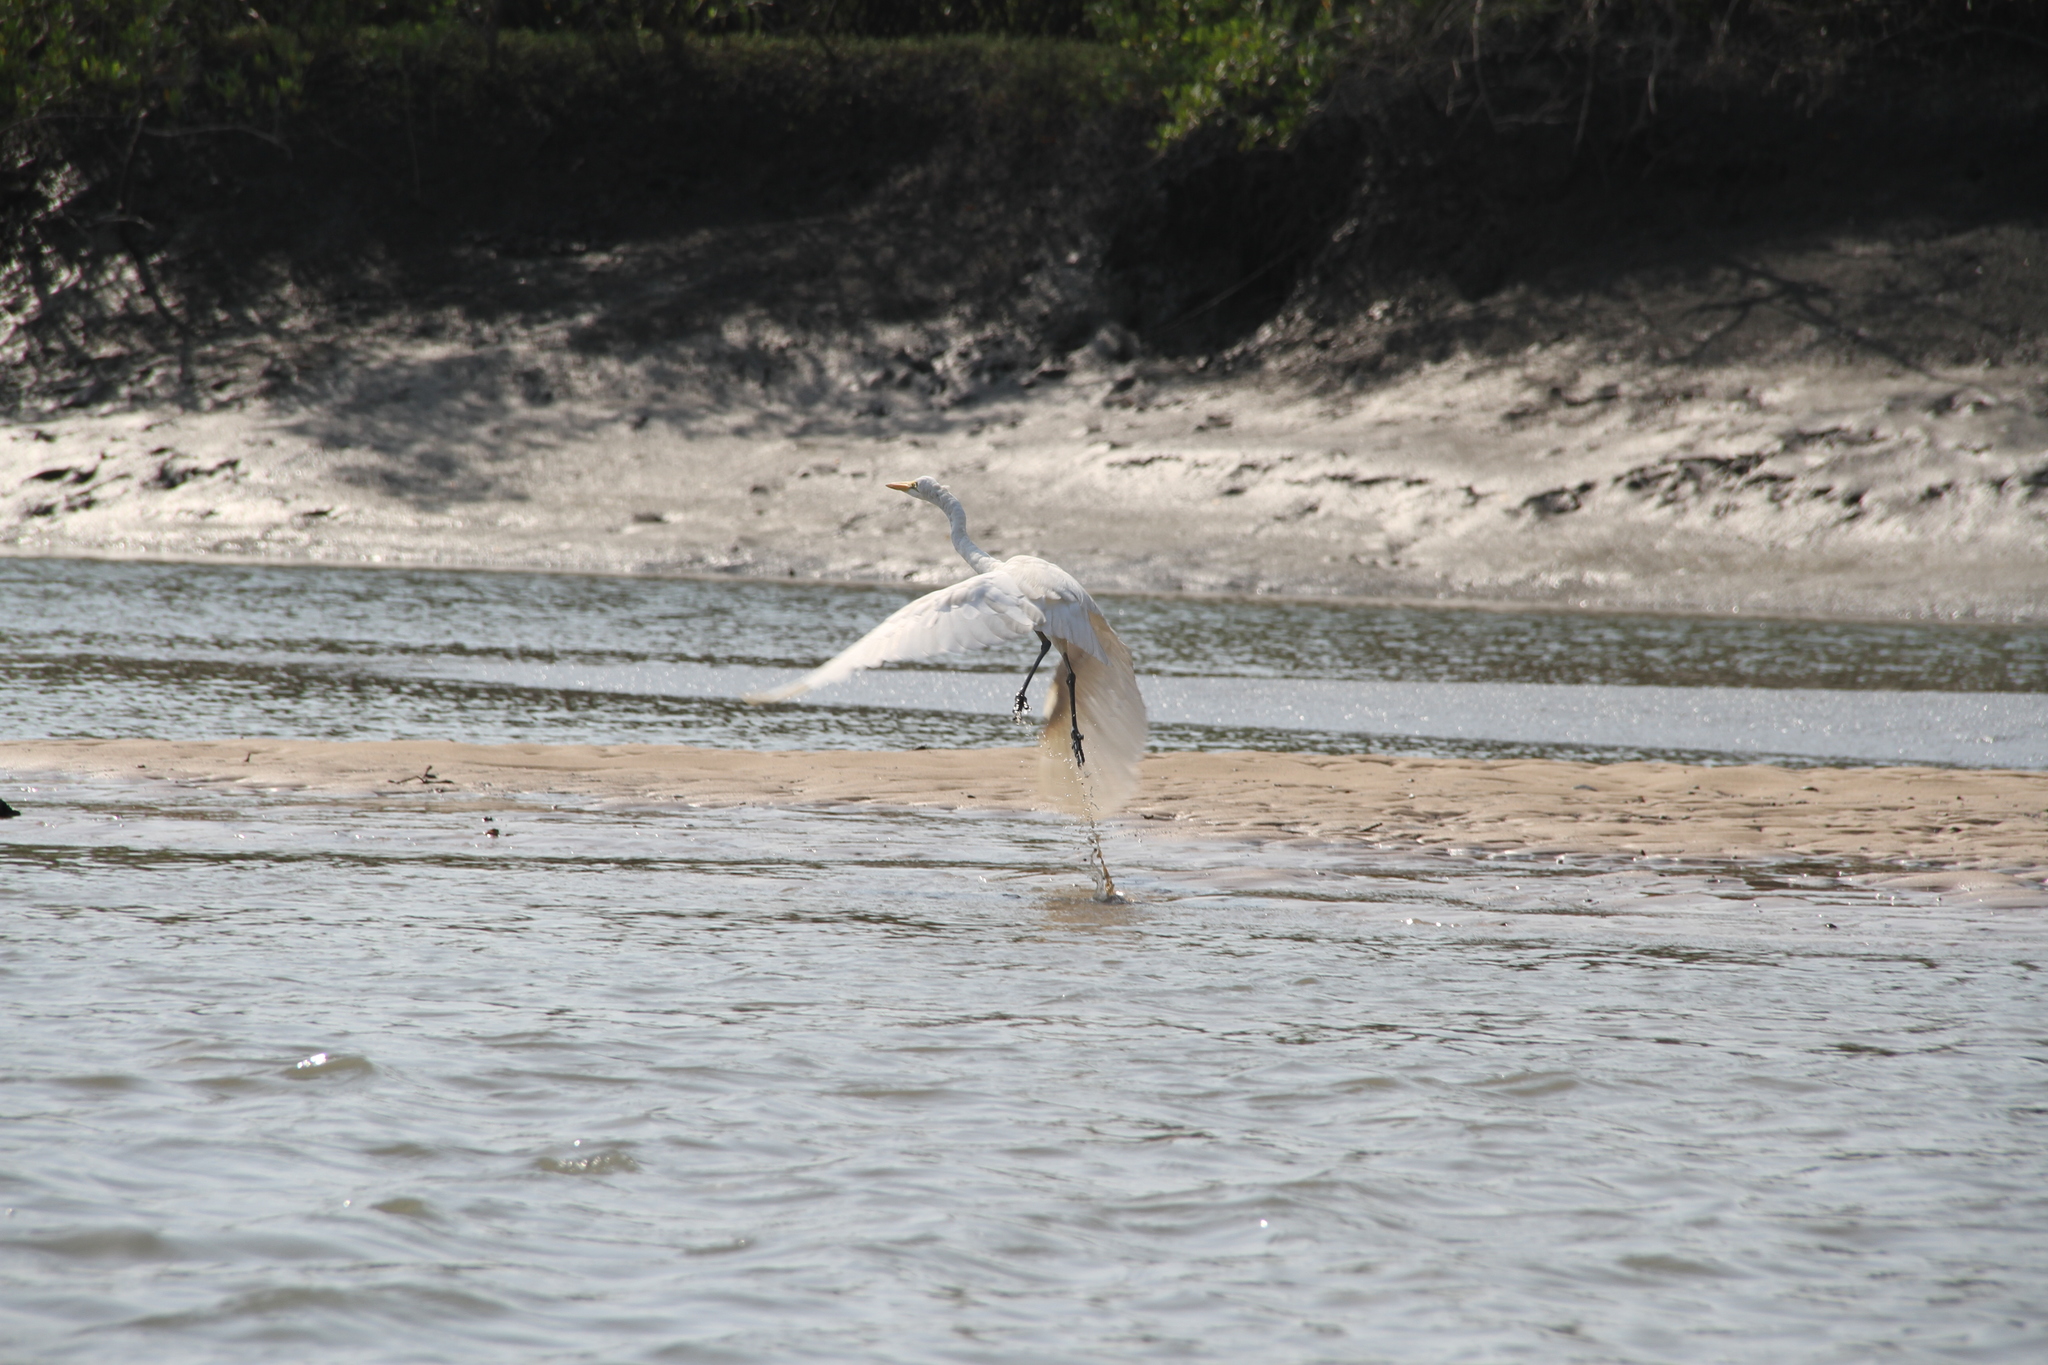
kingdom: Animalia
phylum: Chordata
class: Aves
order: Pelecaniformes
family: Ardeidae
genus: Ardea
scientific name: Ardea alba
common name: Great egret
